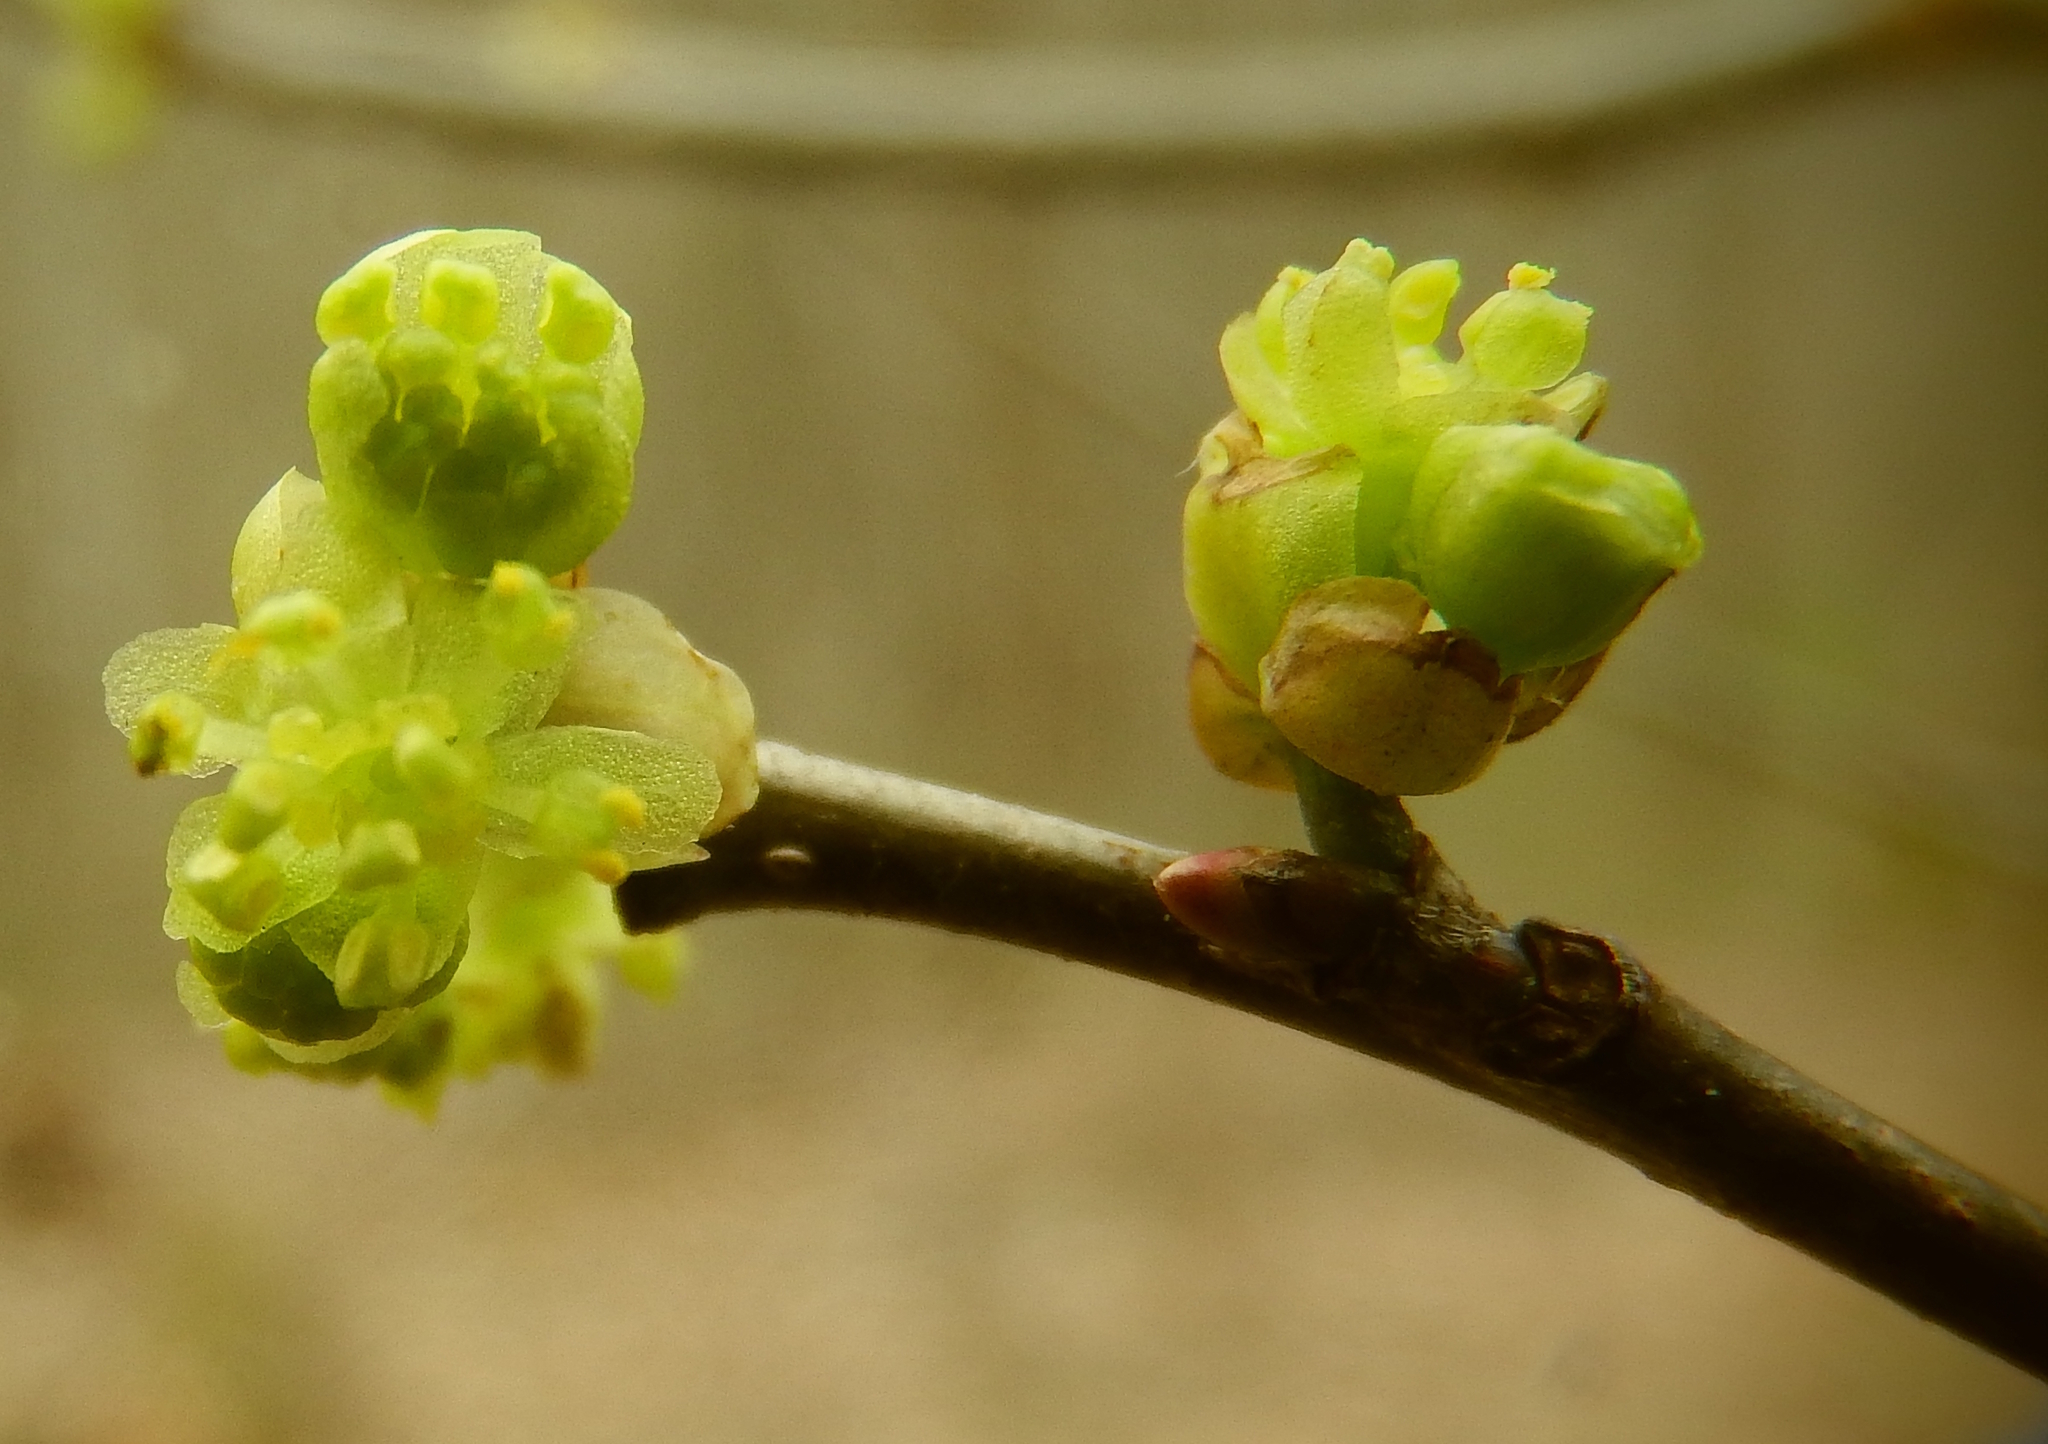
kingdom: Plantae
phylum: Tracheophyta
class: Magnoliopsida
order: Laurales
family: Lauraceae
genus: Lindera
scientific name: Lindera benzoin
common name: Spicebush
